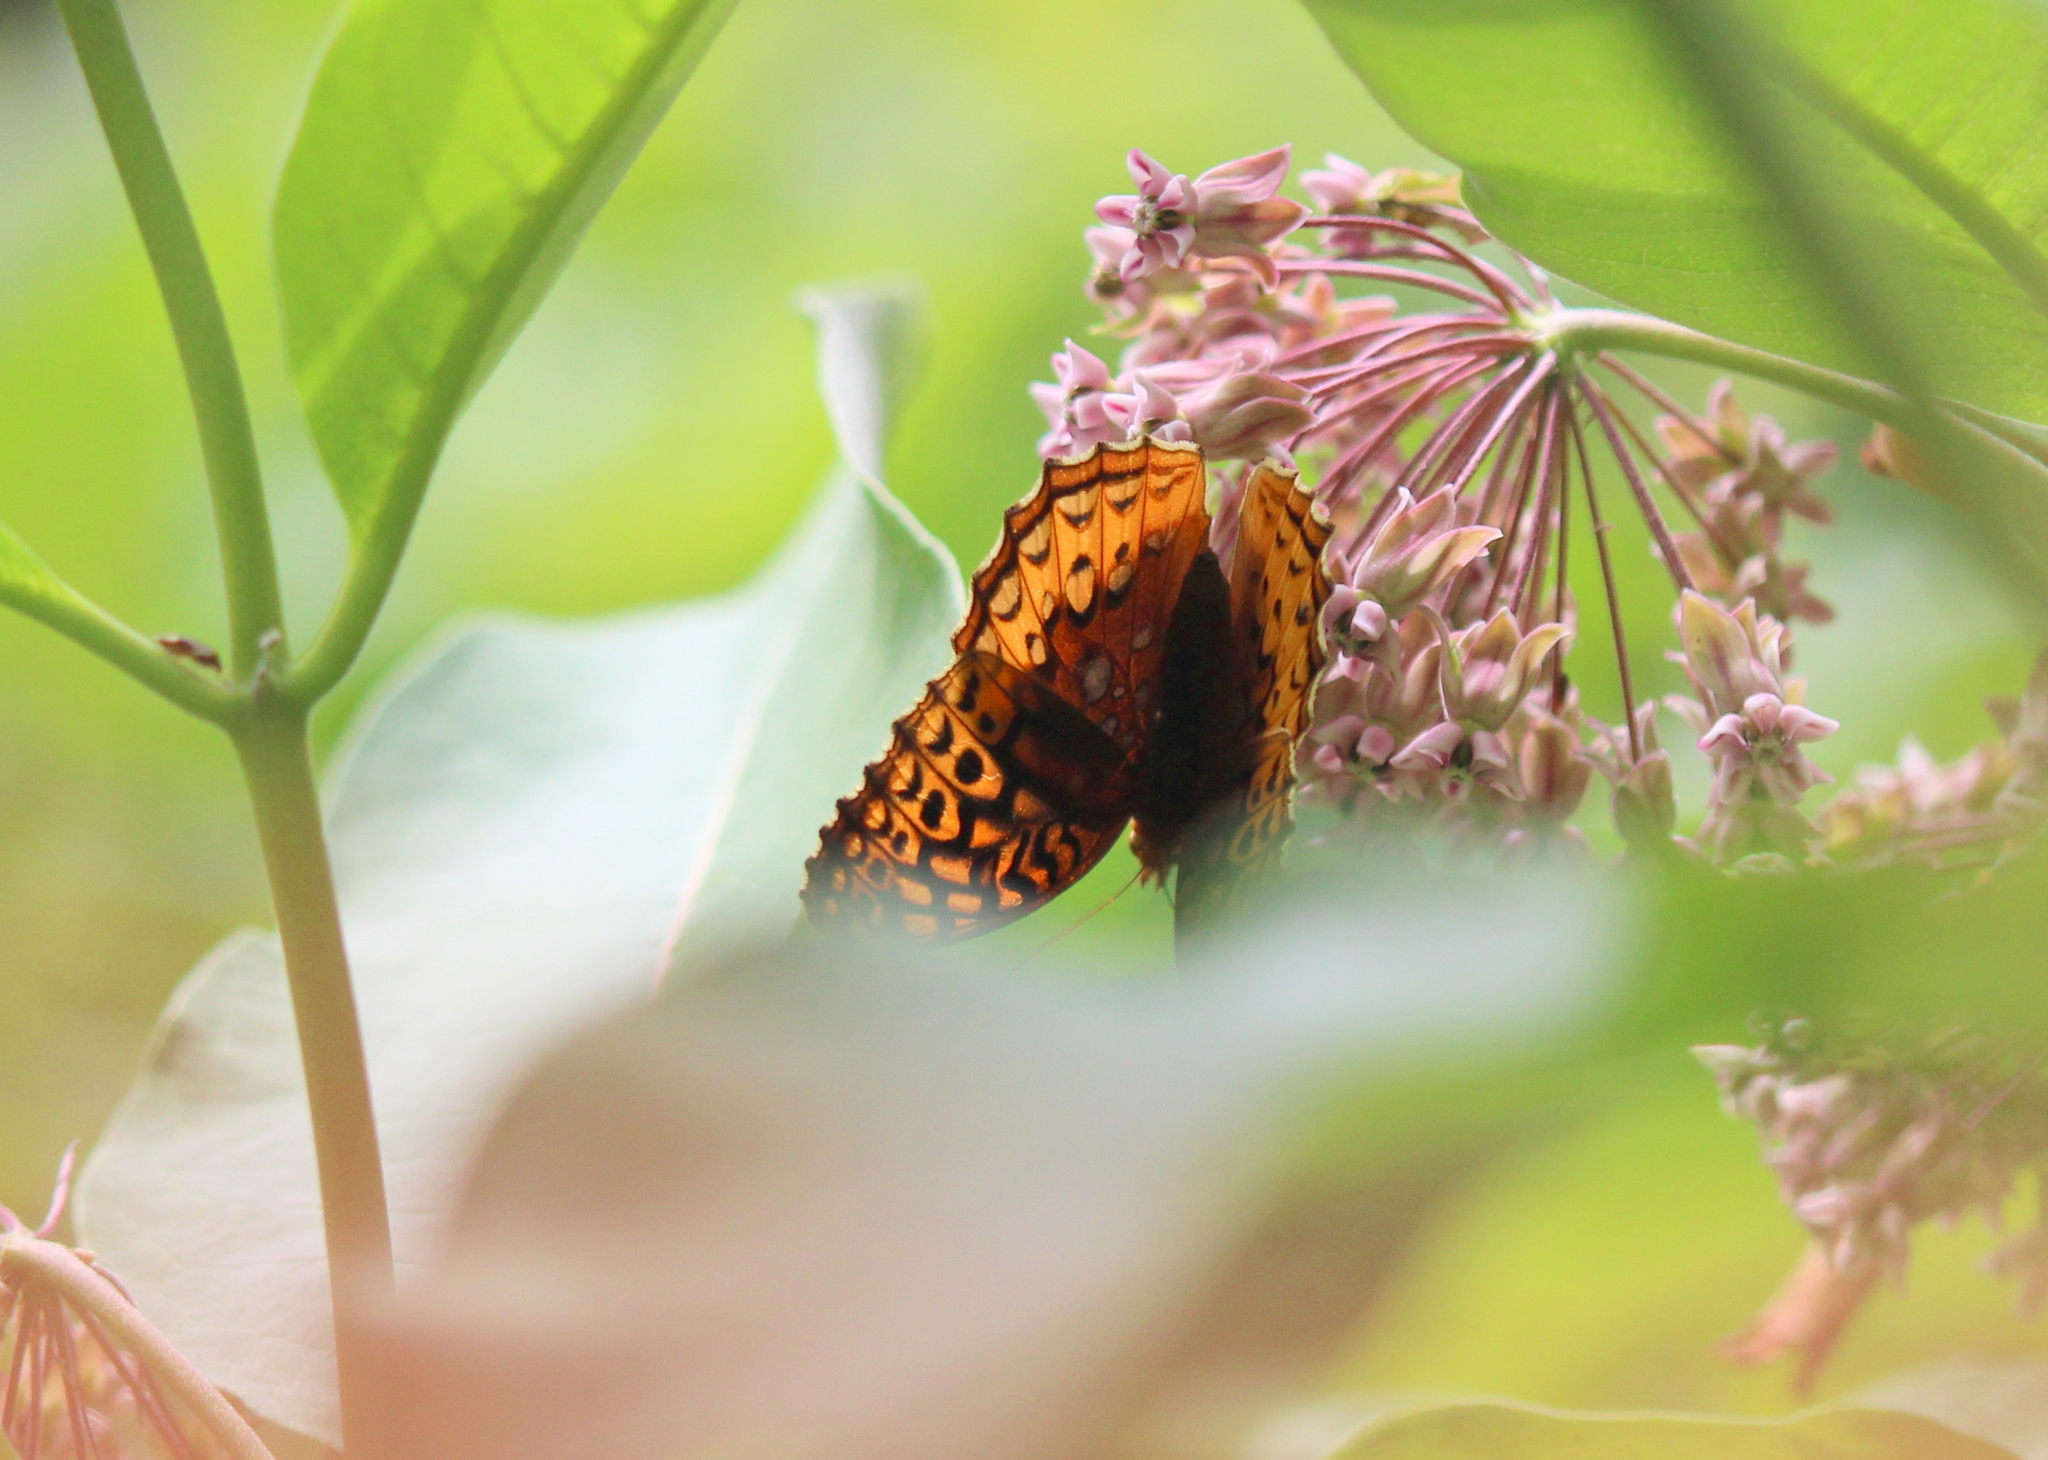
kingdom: Animalia
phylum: Arthropoda
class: Insecta
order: Lepidoptera
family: Nymphalidae
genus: Speyeria
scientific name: Speyeria cybele
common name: Great spangled fritillary
